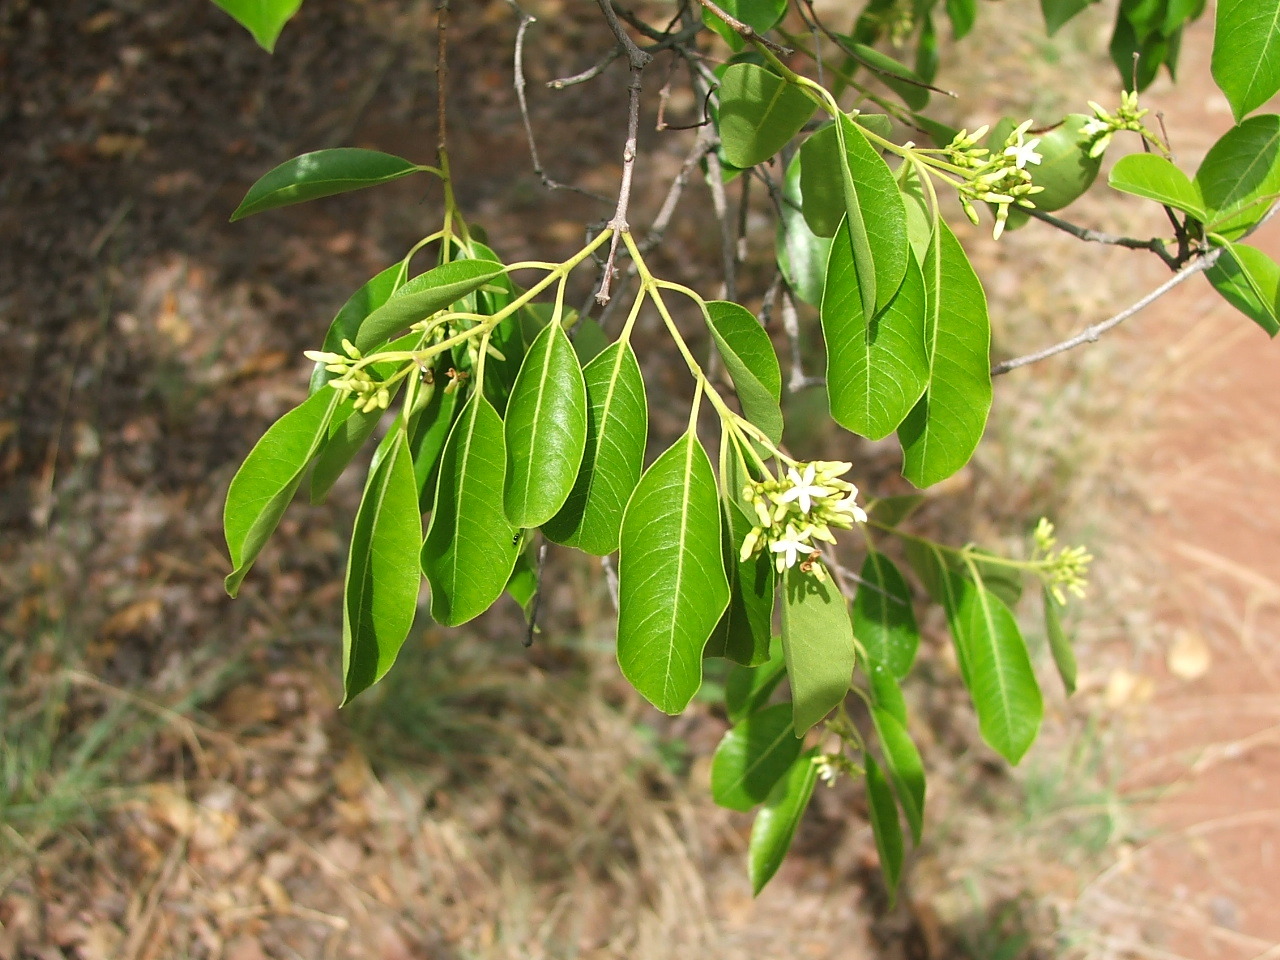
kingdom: Plantae
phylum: Tracheophyta
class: Magnoliopsida
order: Gentianales
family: Apocynaceae
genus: Diplorhynchus
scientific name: Diplorhynchus condylocarpon
